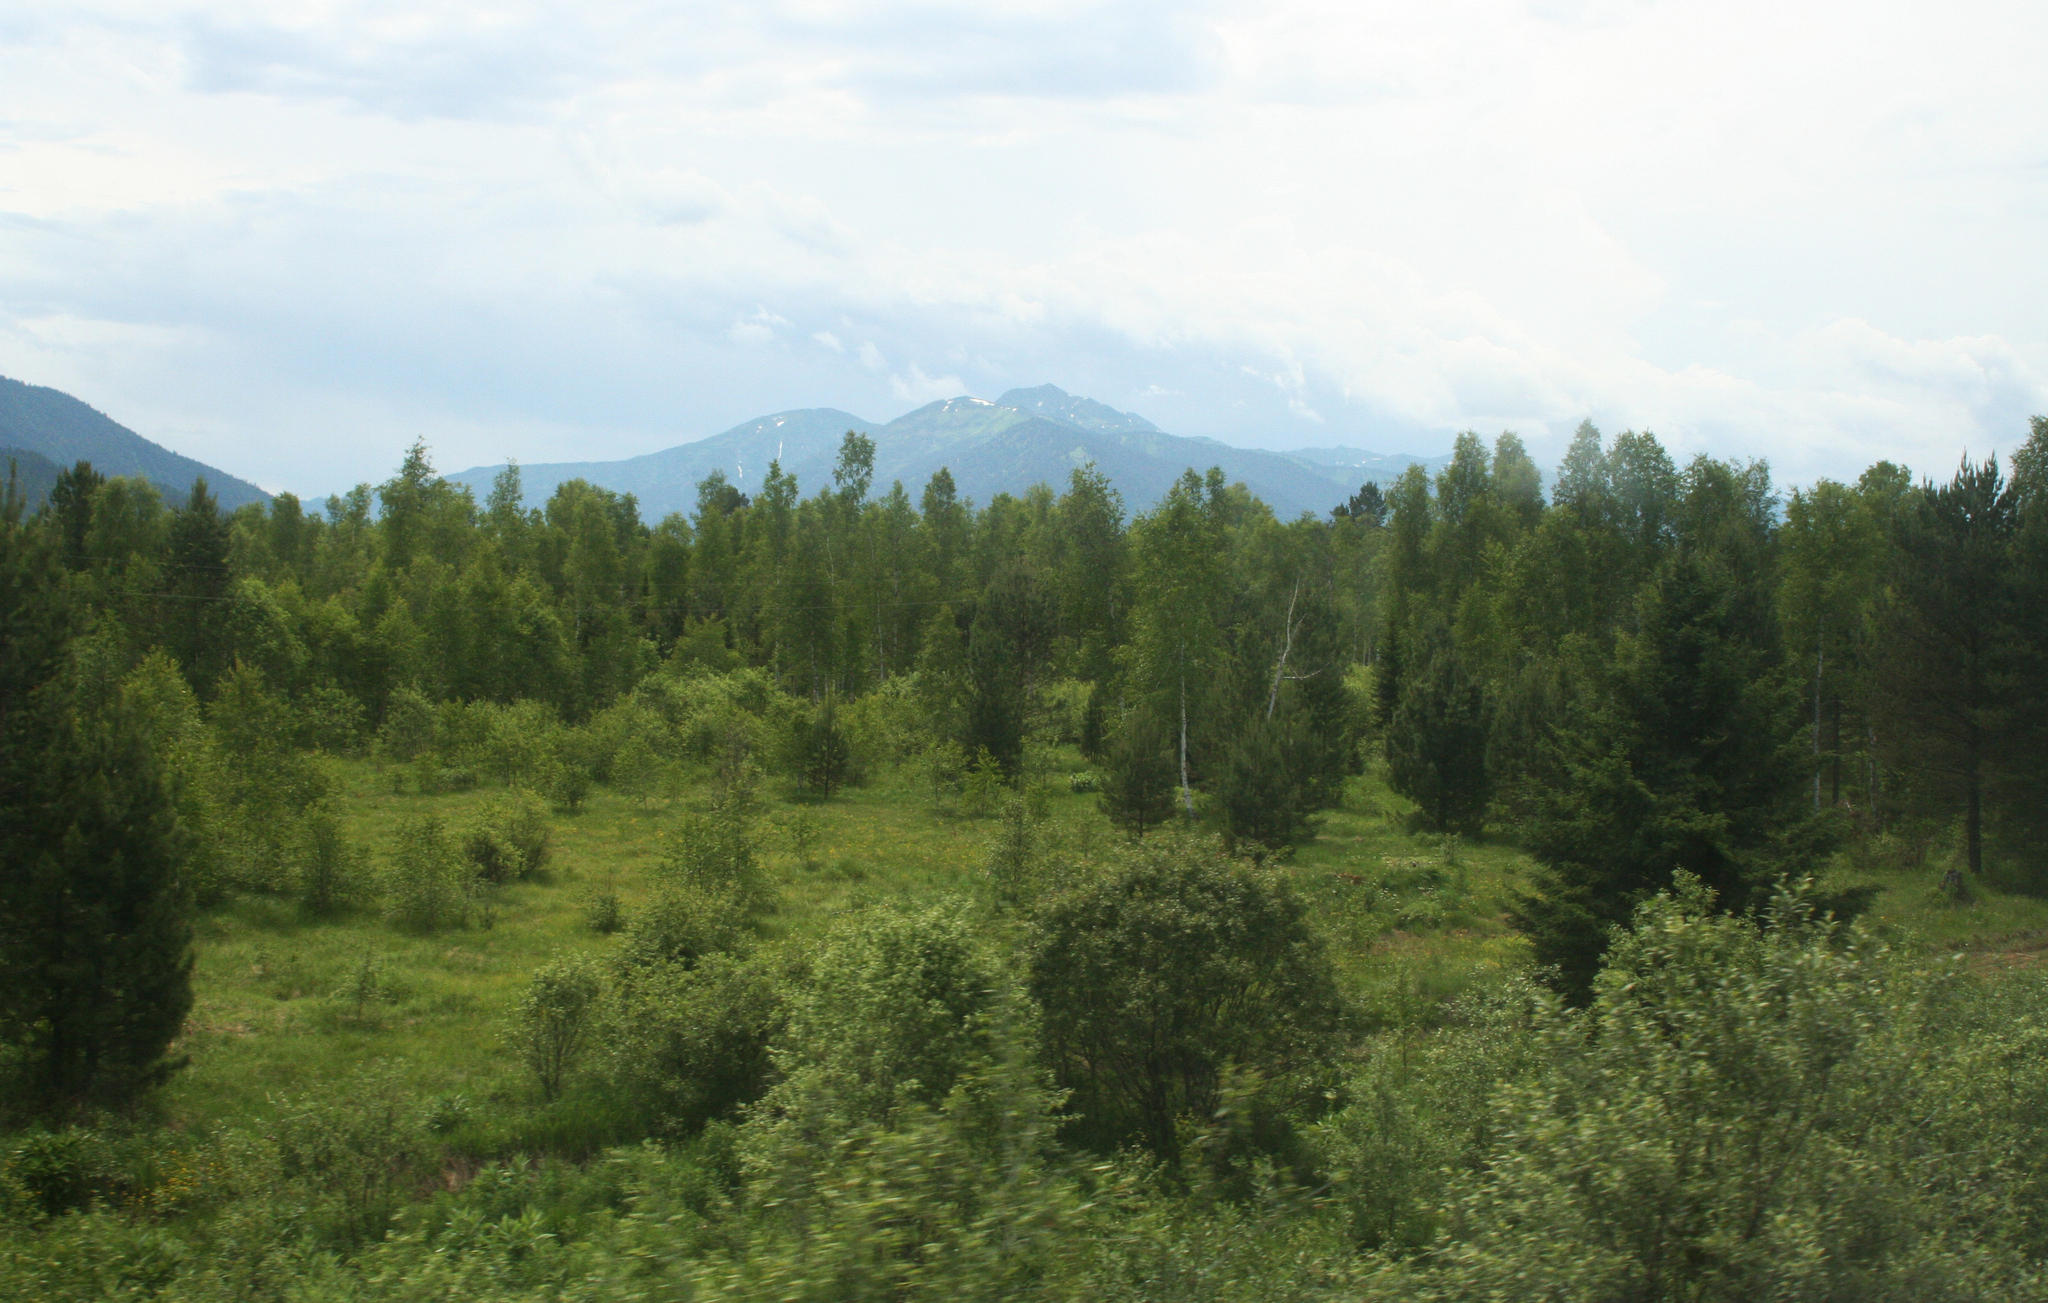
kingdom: Plantae
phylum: Tracheophyta
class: Pinopsida
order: Pinales
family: Pinaceae
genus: Pinus
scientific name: Pinus sibirica
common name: Siberian pine
